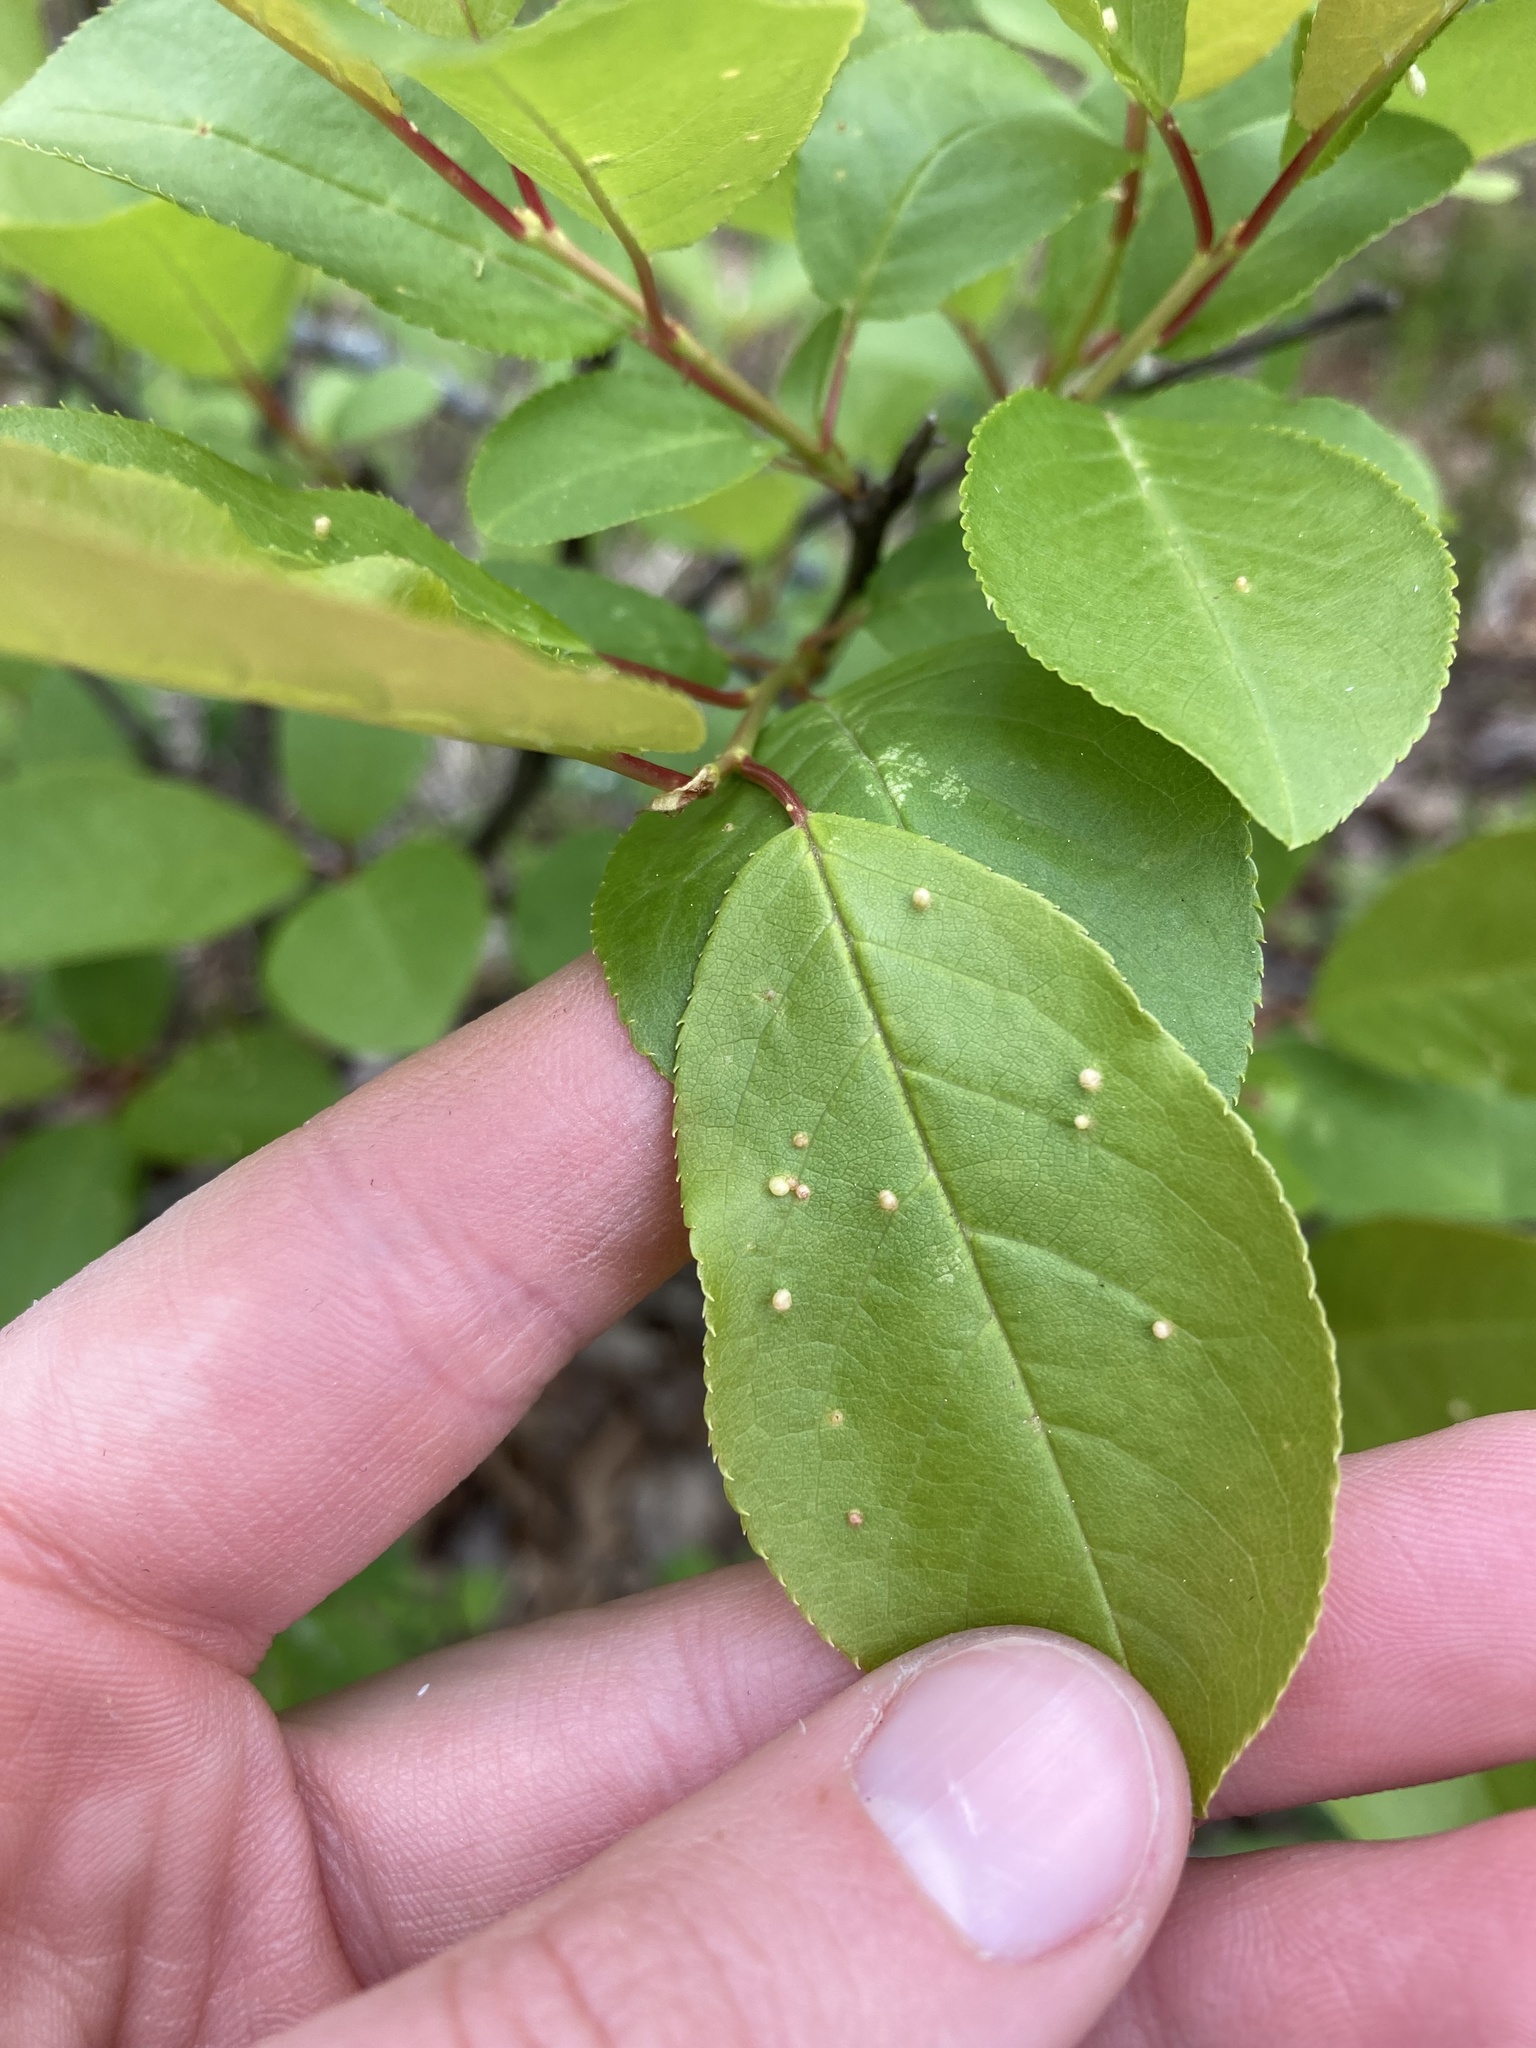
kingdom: Animalia
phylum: Arthropoda
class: Arachnida
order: Trombidiformes
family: Eriophyidae
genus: Eriophyes
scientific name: Eriophyes emarginatae
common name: Plum leaf gall mite
